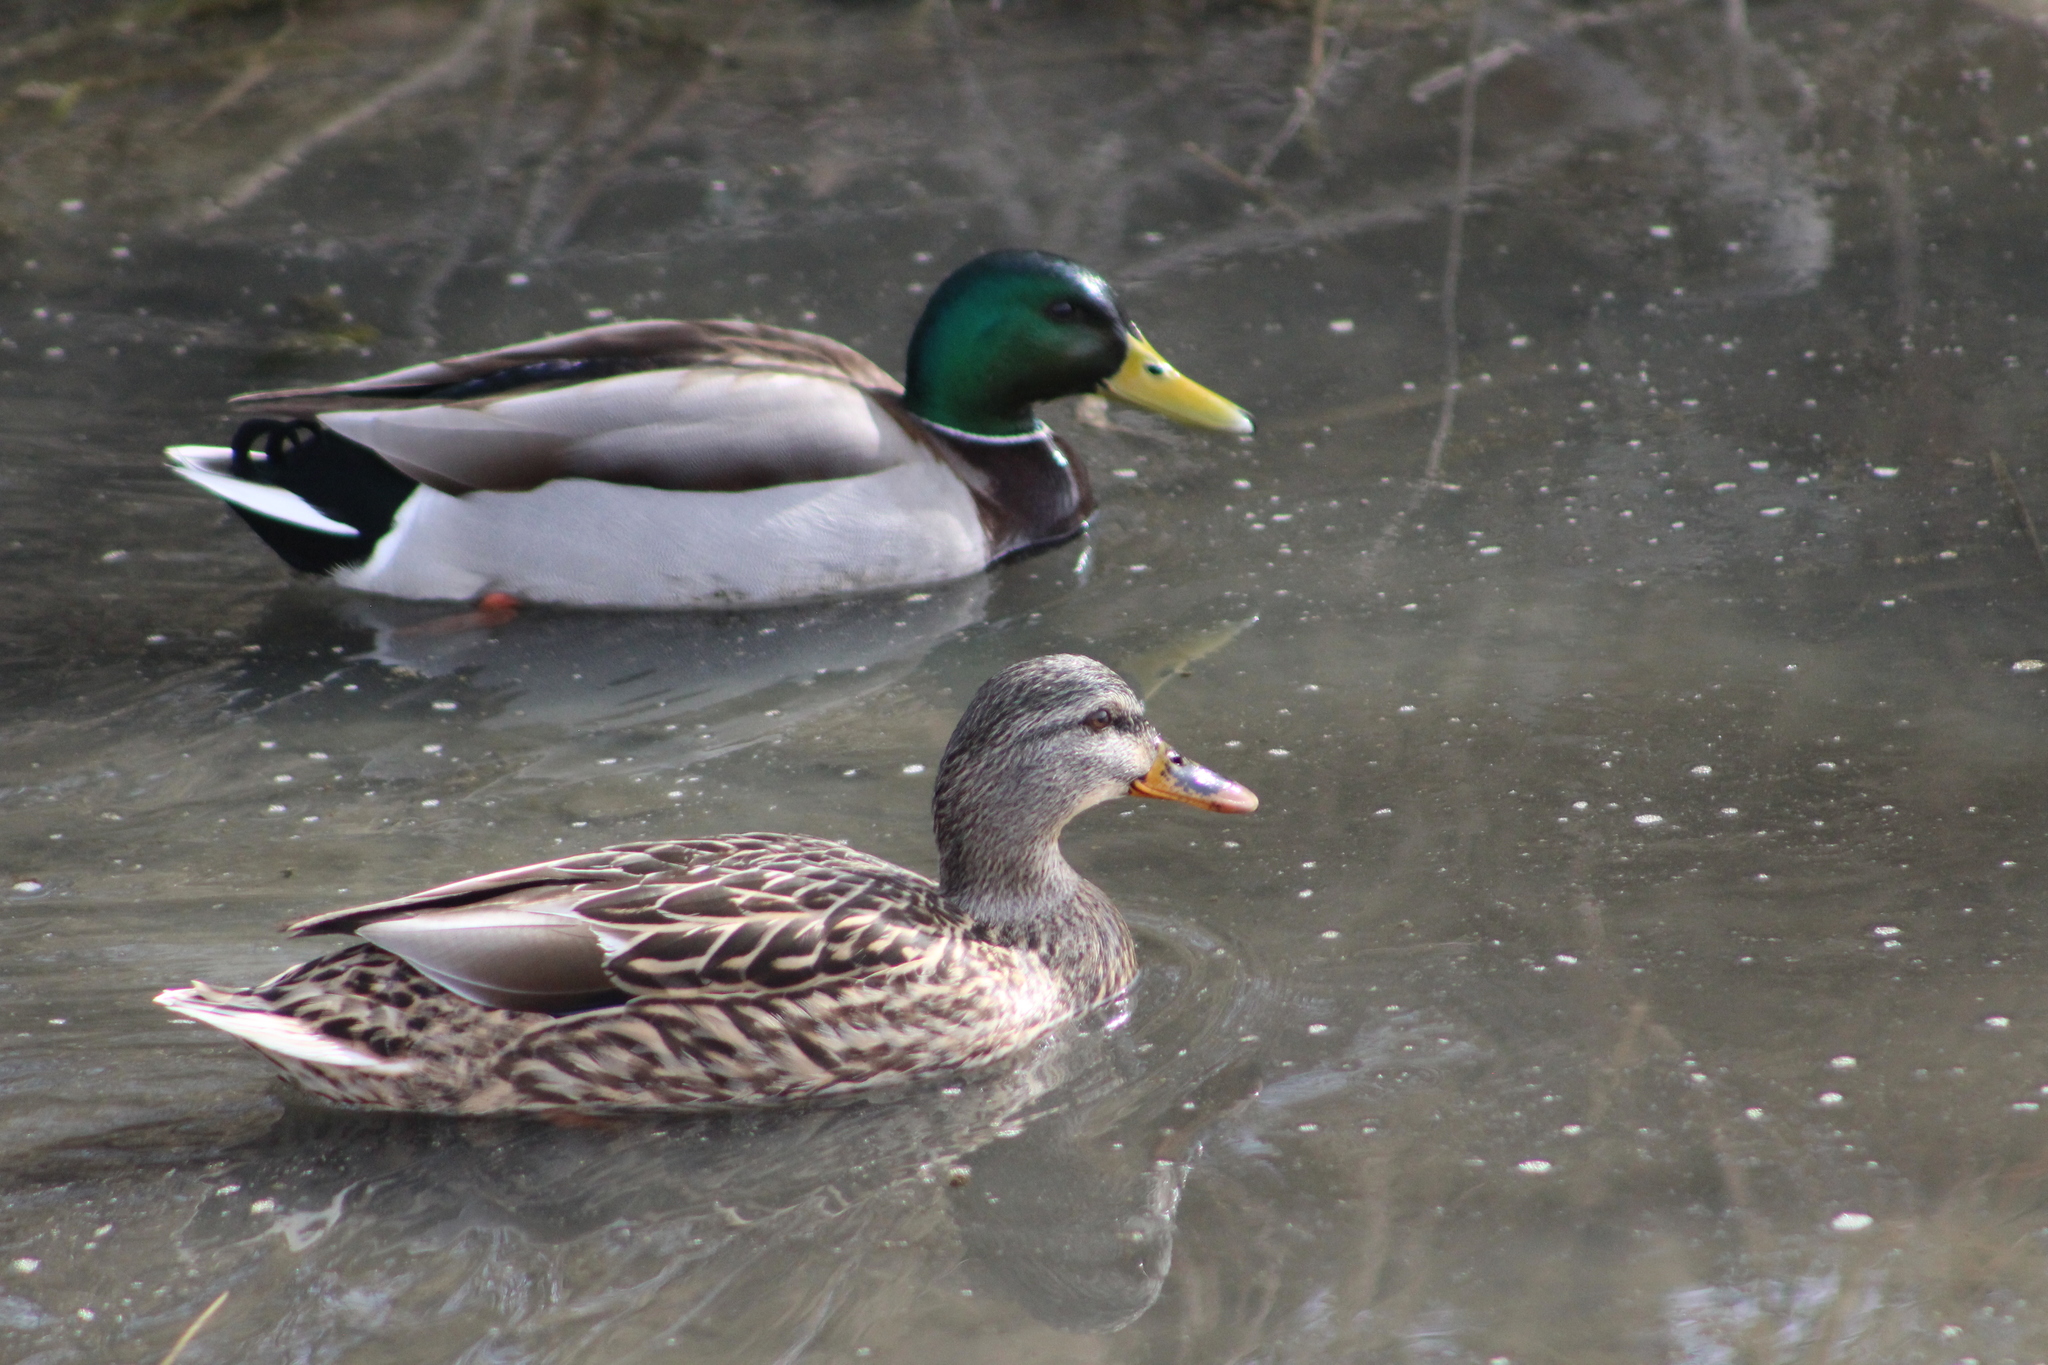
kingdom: Animalia
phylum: Chordata
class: Aves
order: Anseriformes
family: Anatidae
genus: Anas
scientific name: Anas platyrhynchos
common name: Mallard
